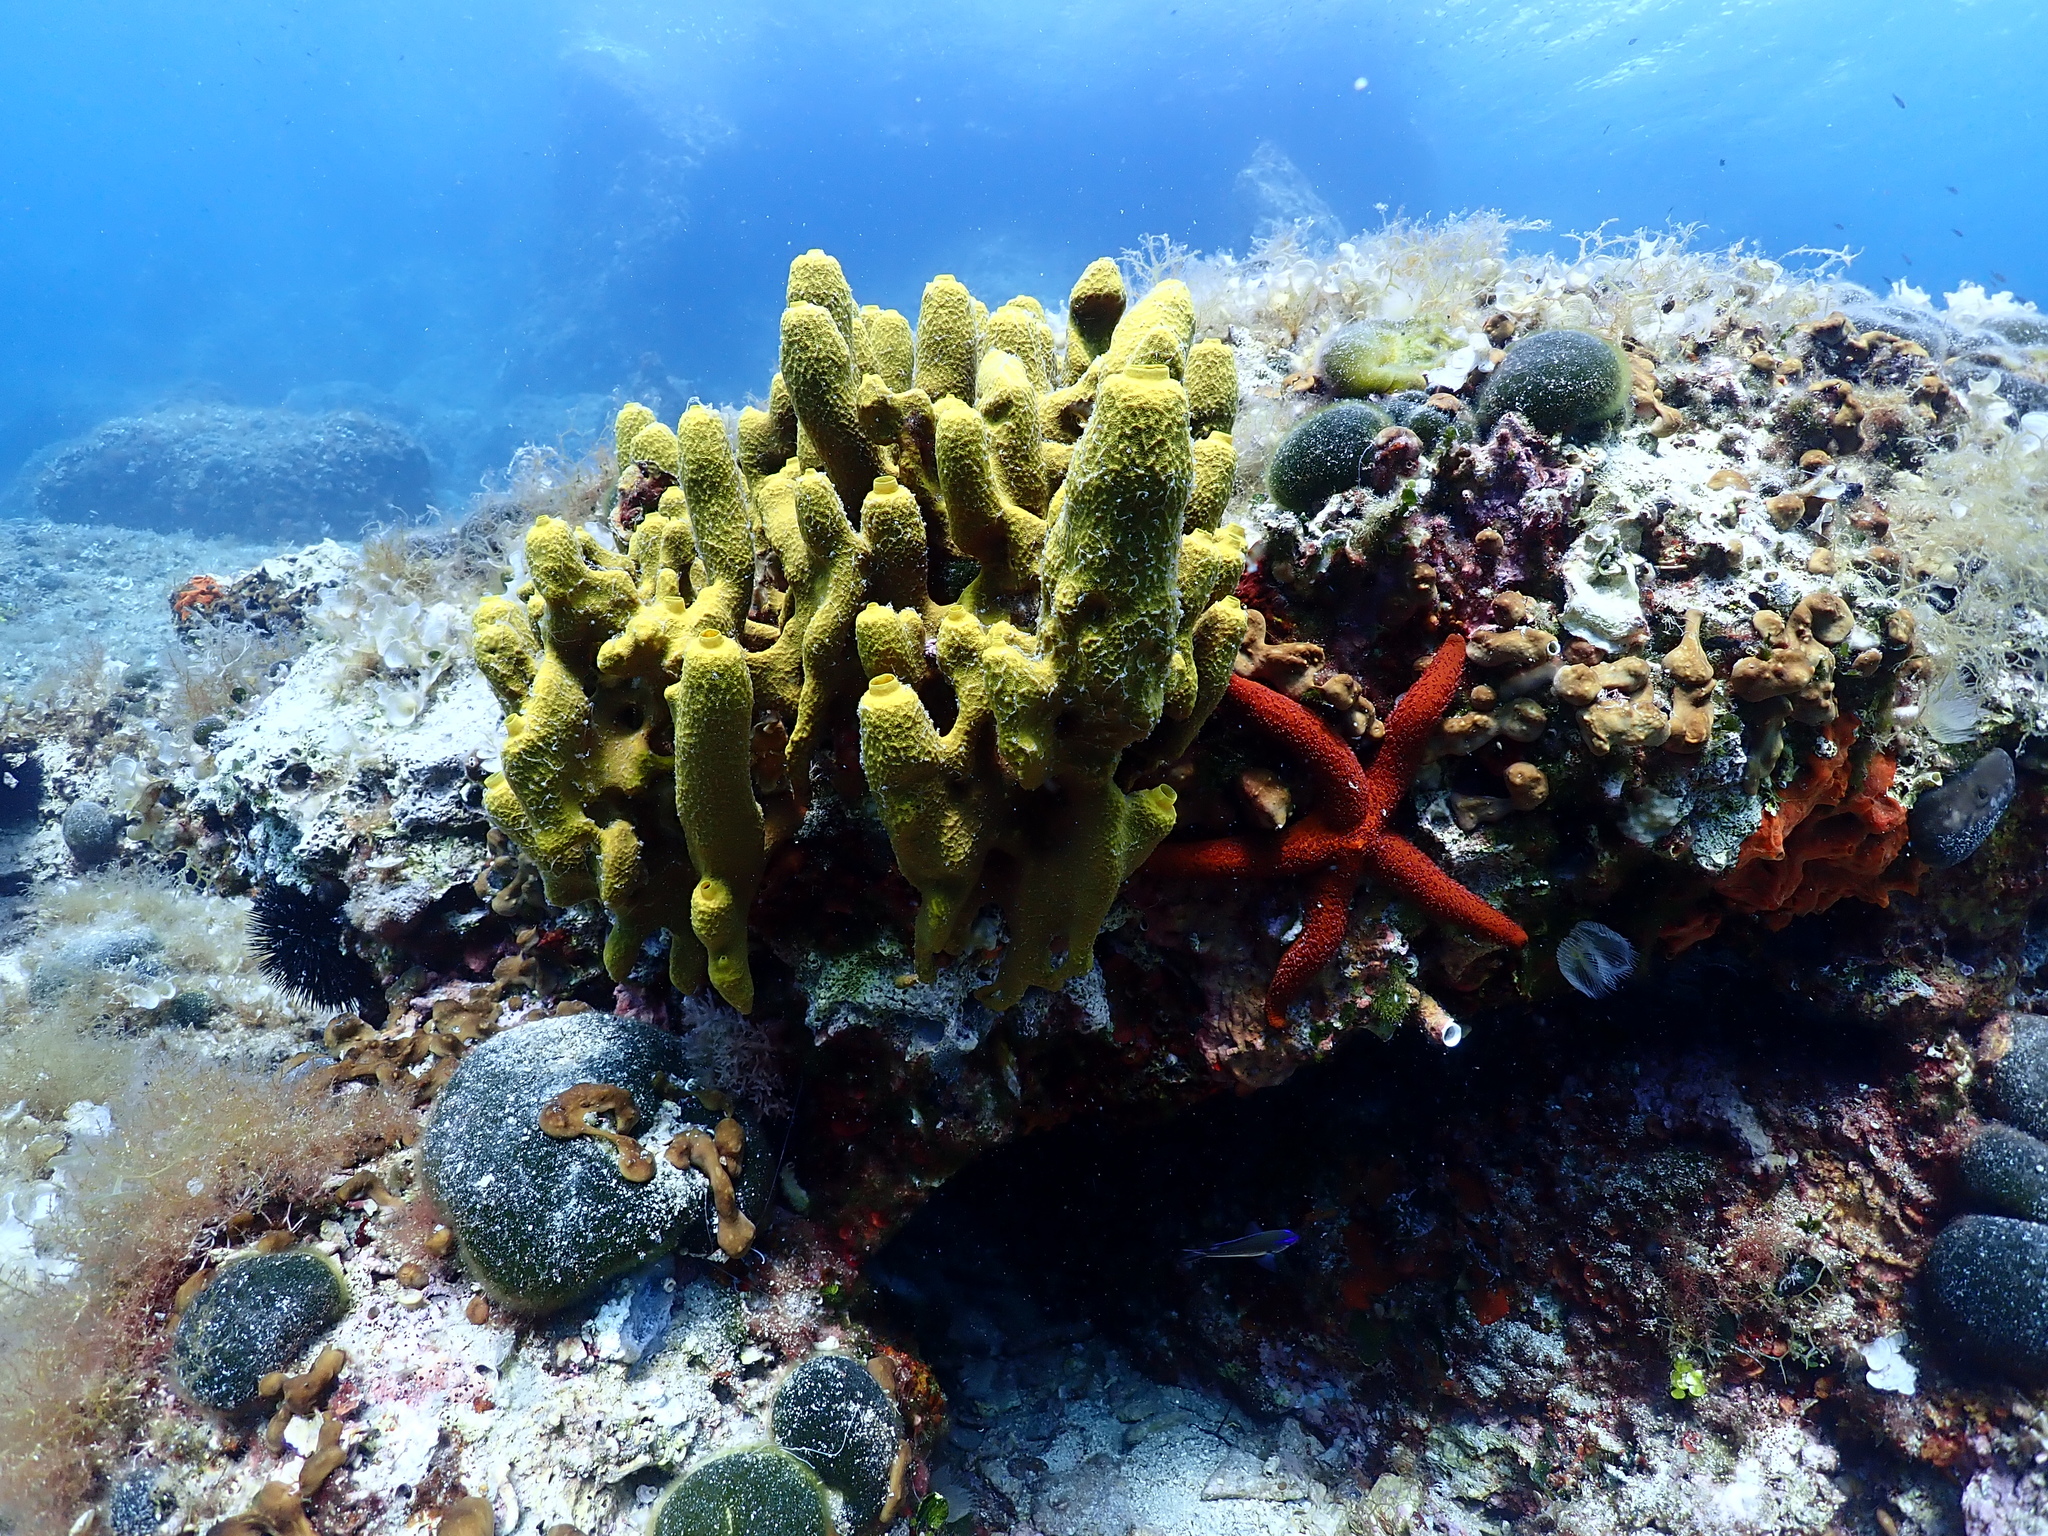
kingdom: Animalia
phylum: Porifera
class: Demospongiae
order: Verongiida
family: Aplysinidae
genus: Aplysina
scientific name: Aplysina aerophoba
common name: Aureate sponge
